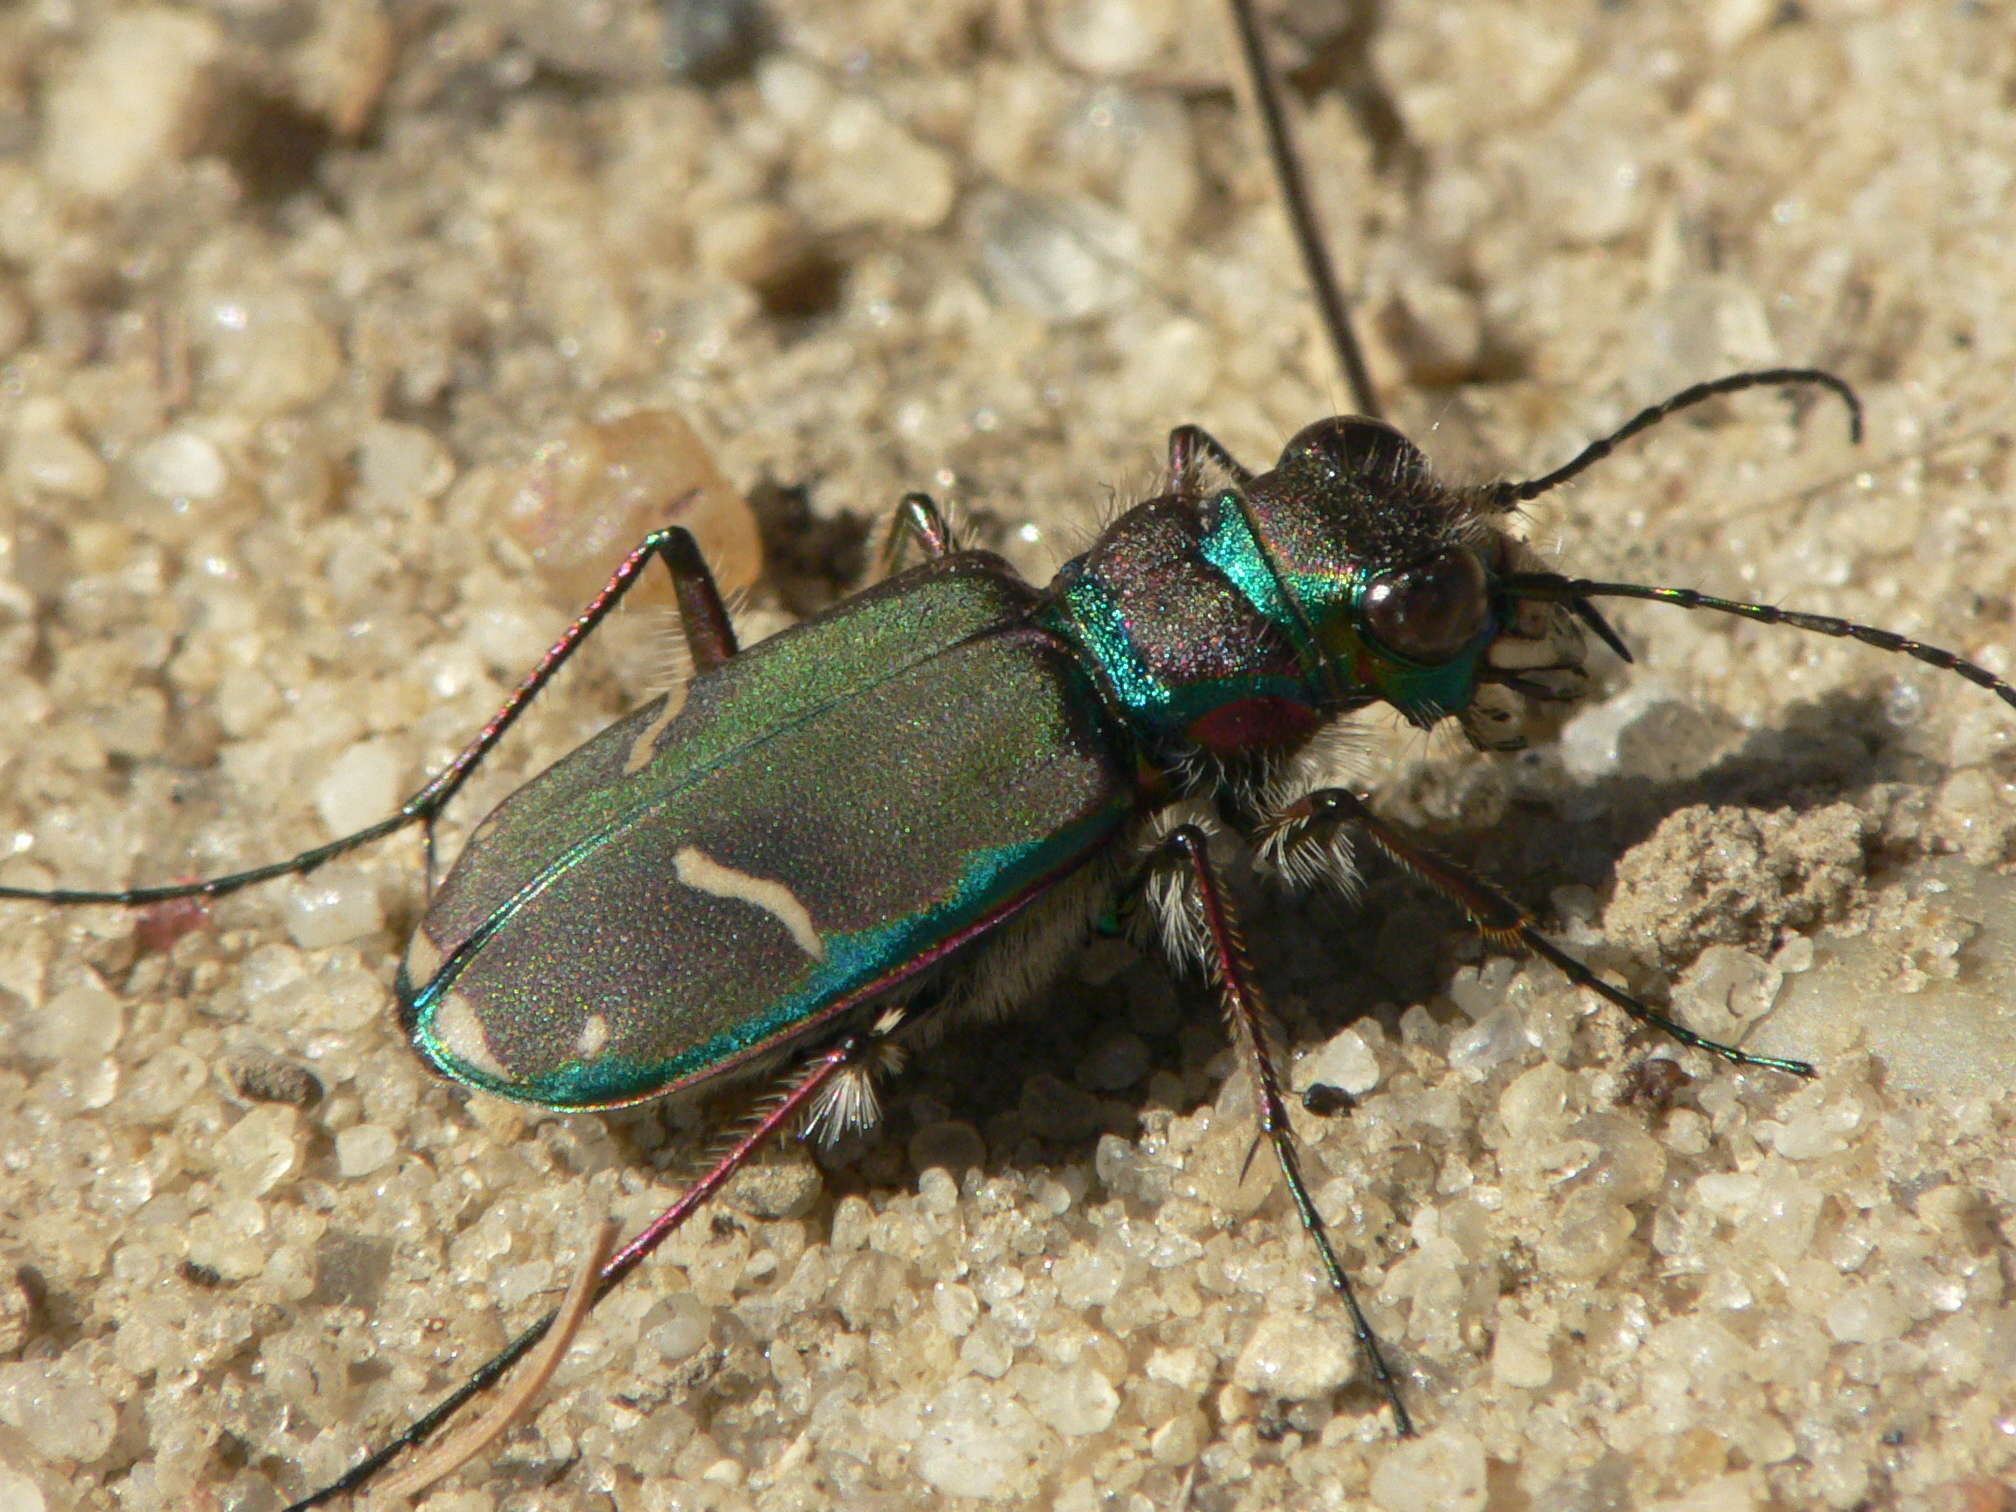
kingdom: Animalia
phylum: Arthropoda
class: Insecta
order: Coleoptera
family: Carabidae
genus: Cicindela
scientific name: Cicindela purpurea
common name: Cow path tiger beetle
